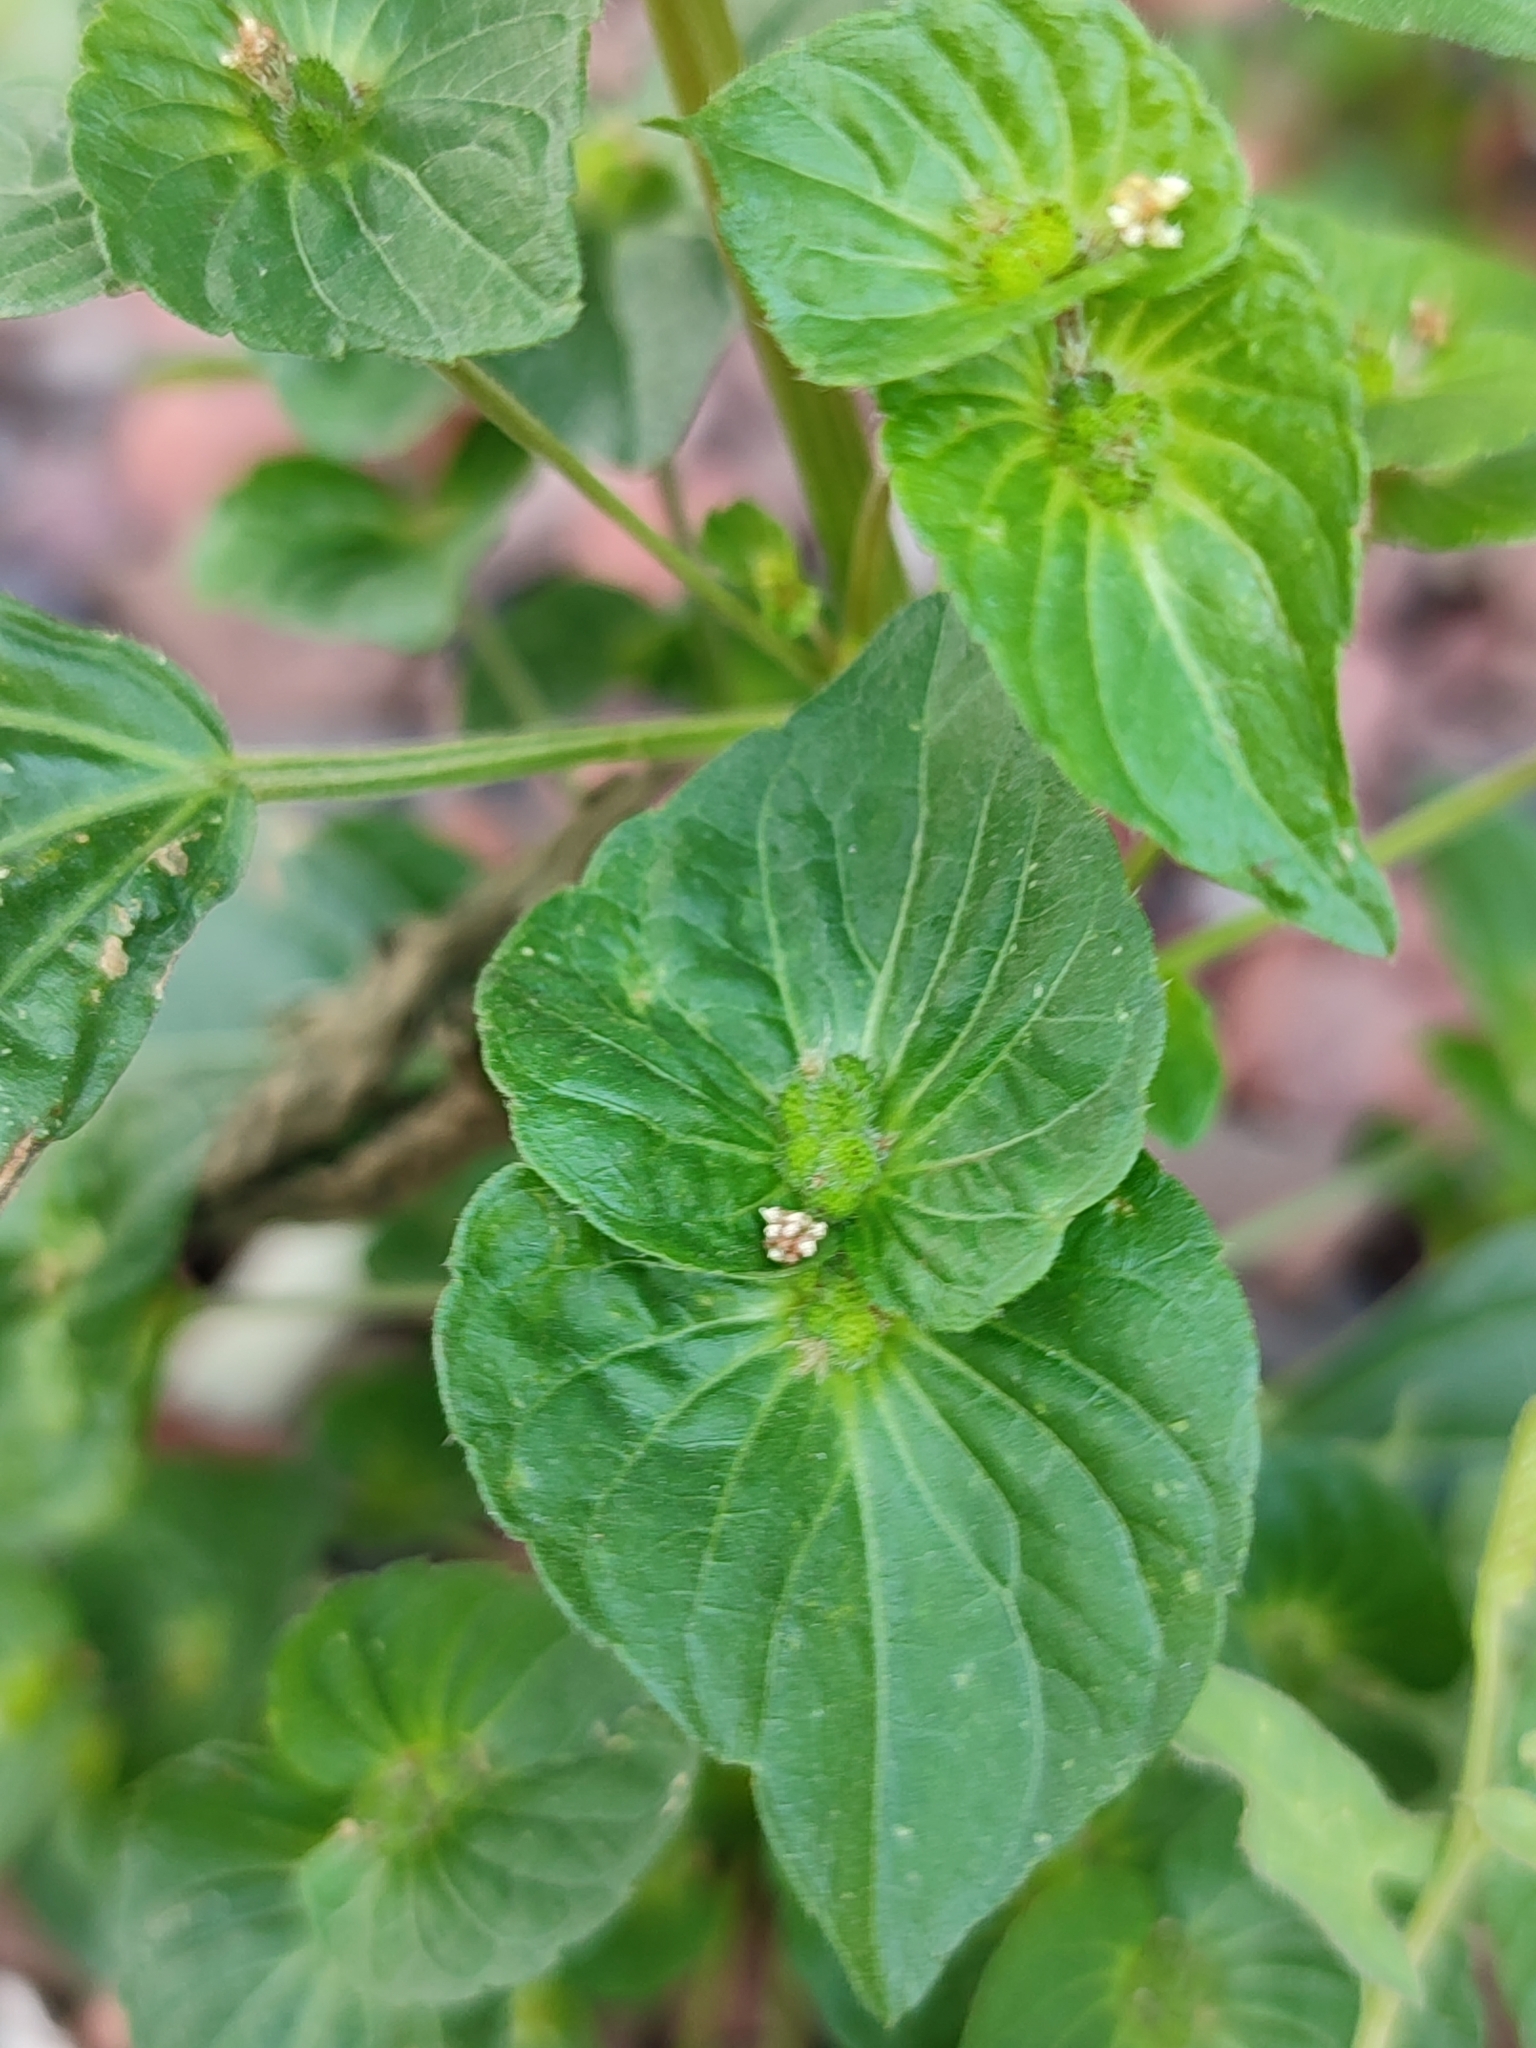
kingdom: Plantae
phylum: Tracheophyta
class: Magnoliopsida
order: Malpighiales
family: Euphorbiaceae
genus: Acalypha
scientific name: Acalypha australis
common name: Asian copperleaf
